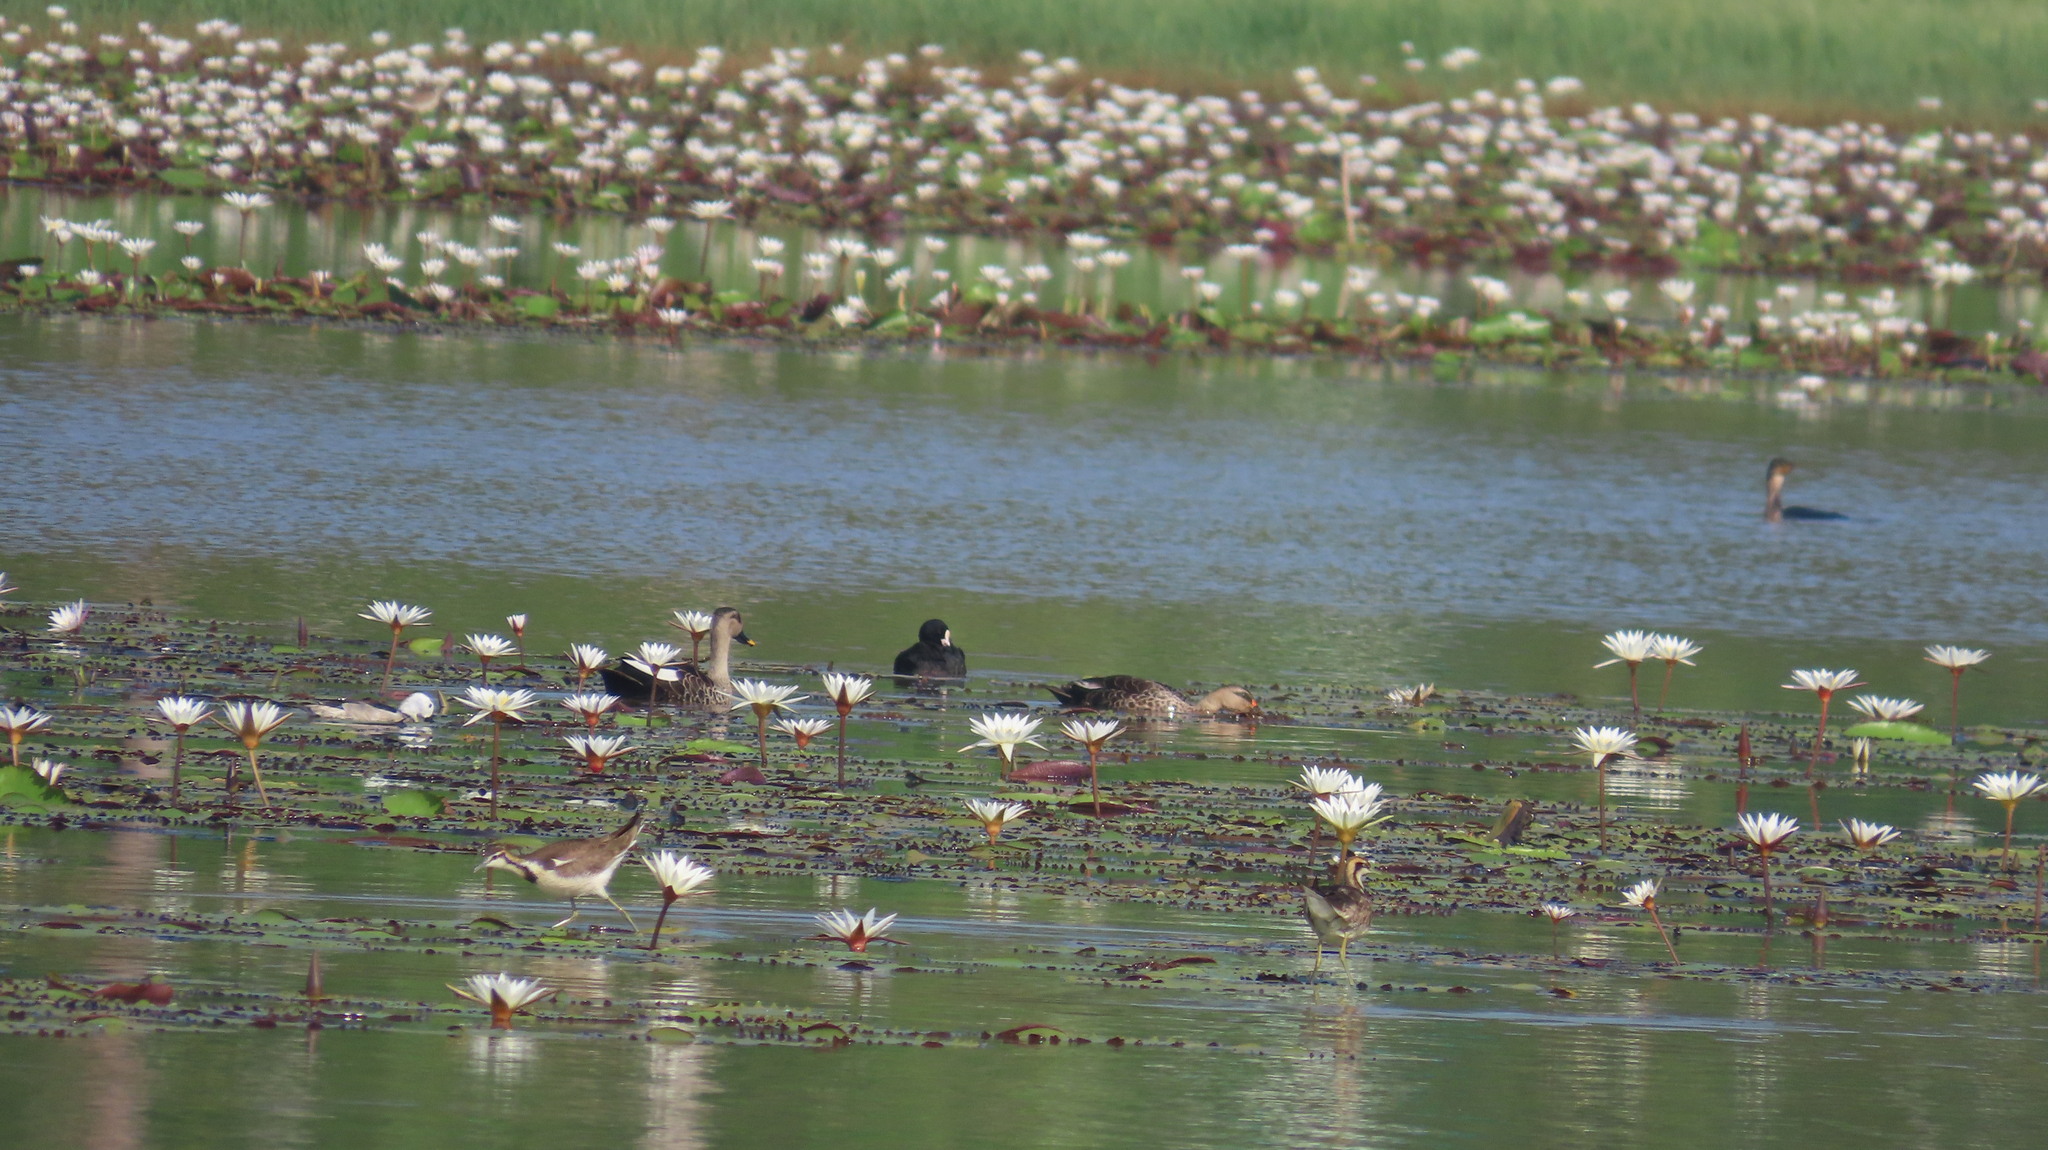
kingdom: Animalia
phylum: Chordata
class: Aves
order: Gruiformes
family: Rallidae
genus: Fulica
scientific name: Fulica atra
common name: Eurasian coot
